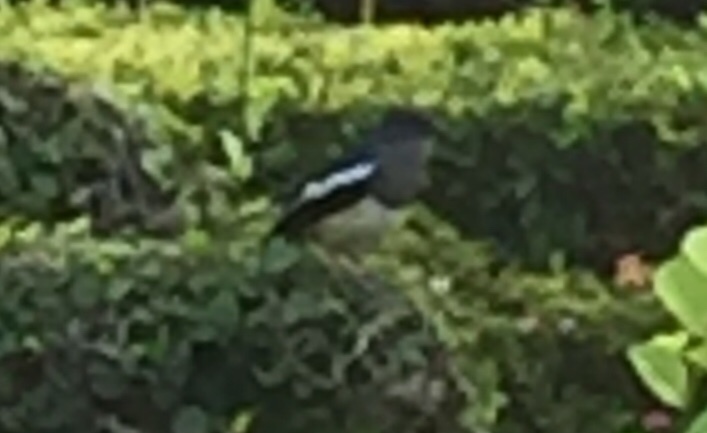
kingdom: Animalia
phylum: Chordata
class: Aves
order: Passeriformes
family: Muscicapidae
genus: Copsychus
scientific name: Copsychus saularis
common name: Oriental magpie-robin
